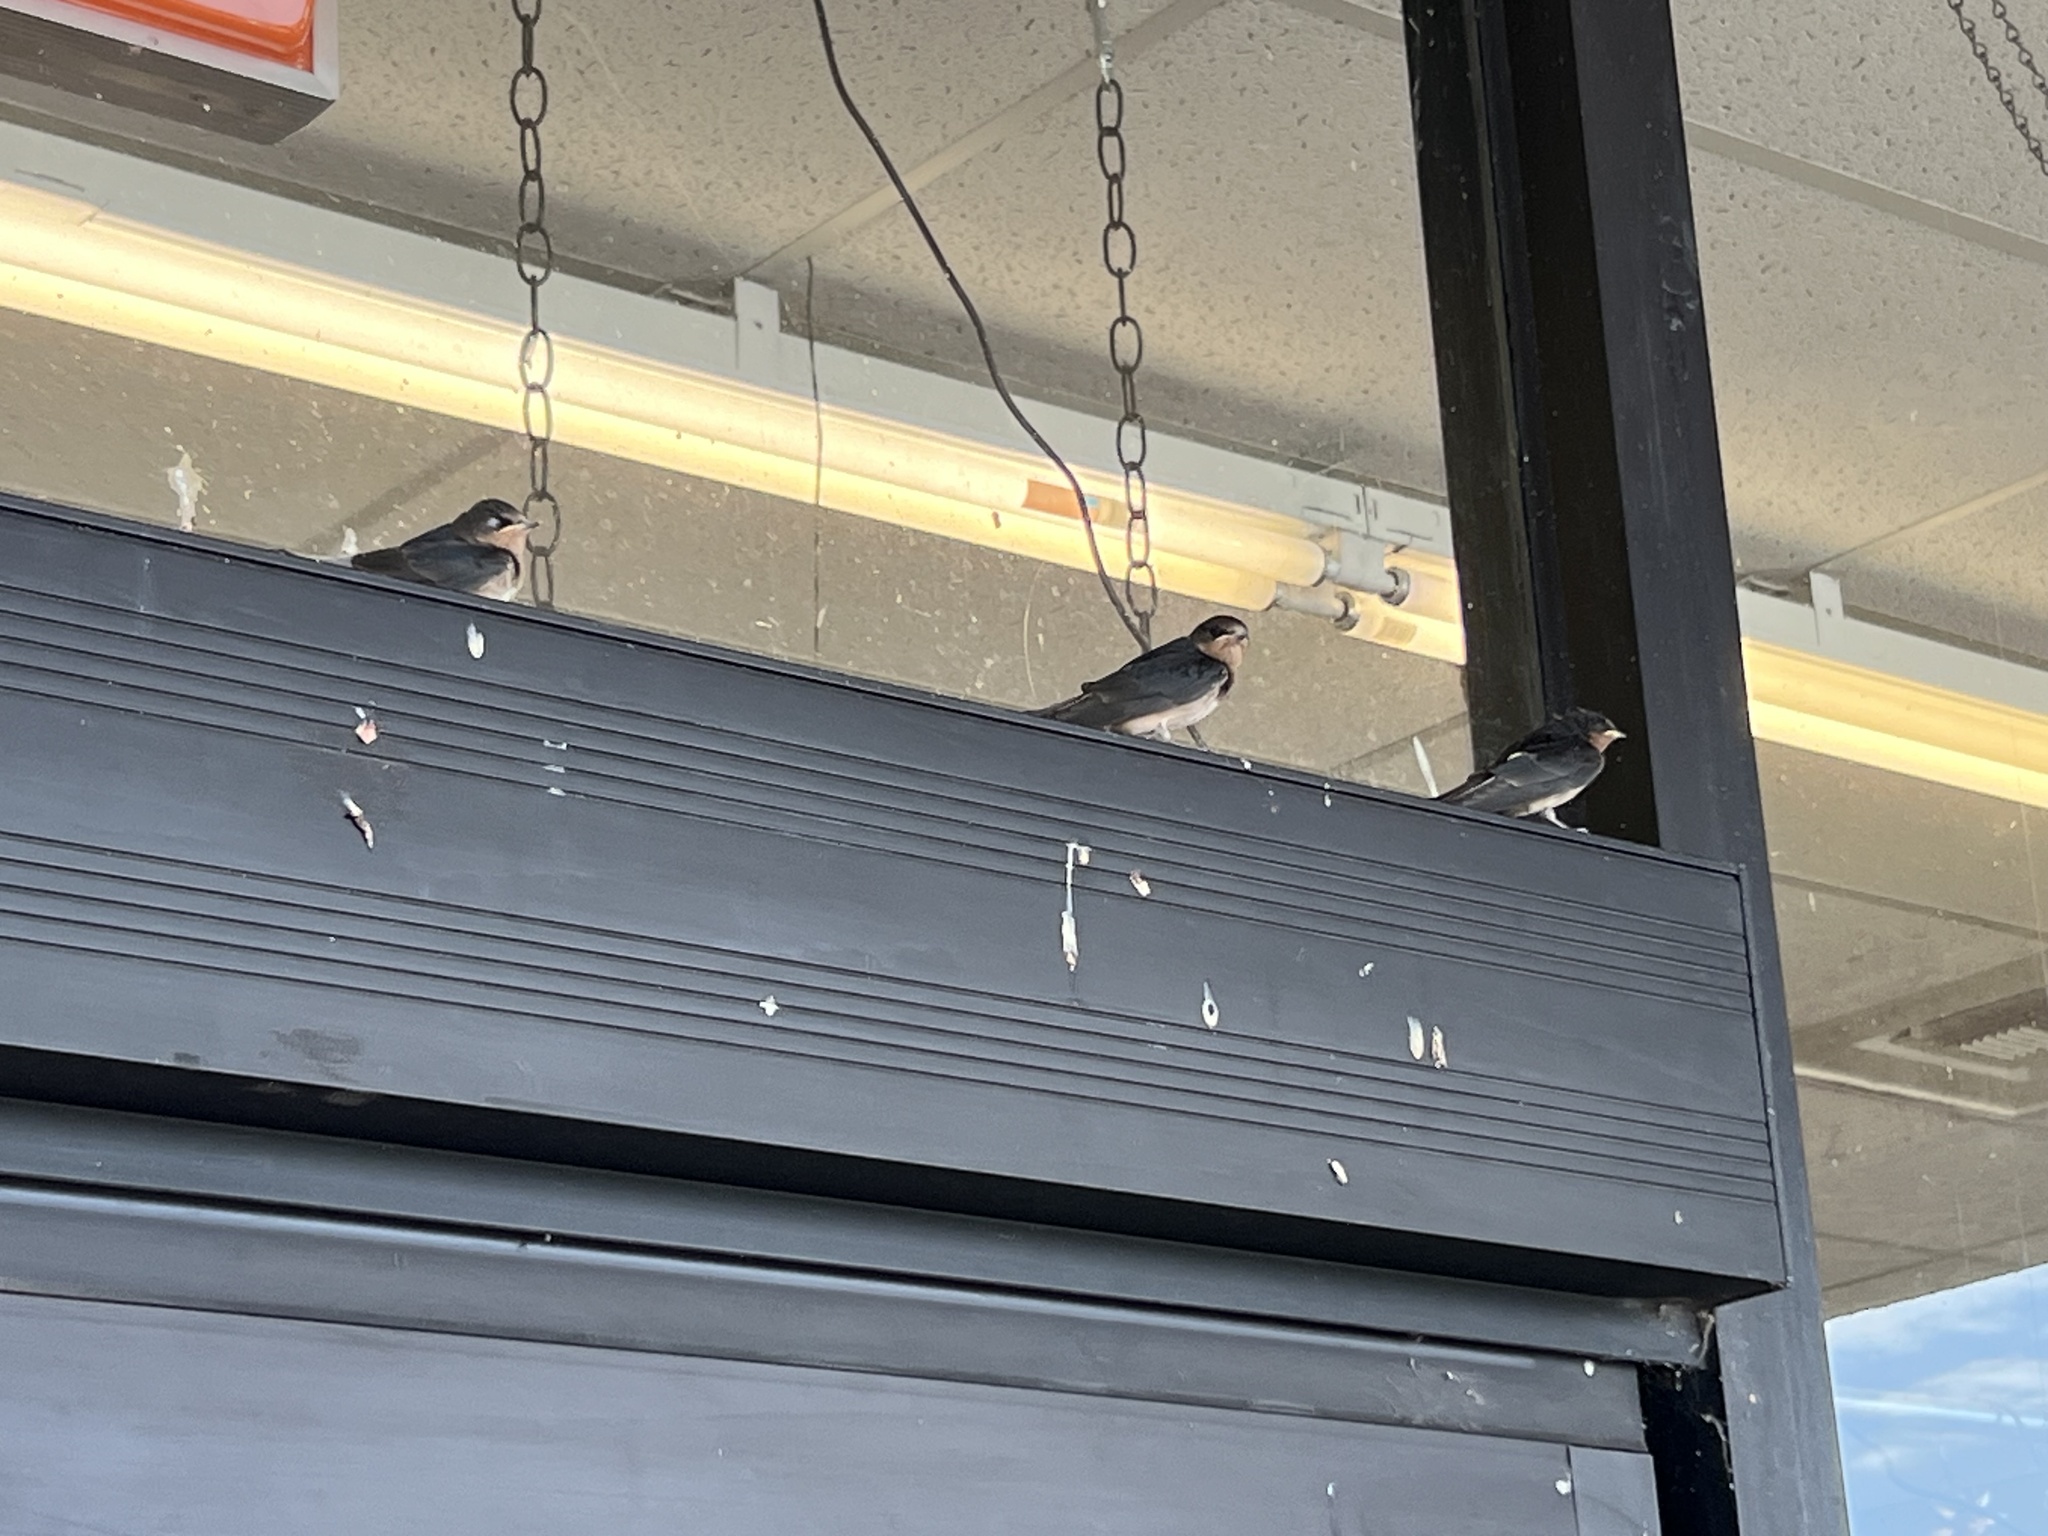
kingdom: Animalia
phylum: Chordata
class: Aves
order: Passeriformes
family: Hirundinidae
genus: Hirundo
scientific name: Hirundo rustica
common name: Barn swallow
